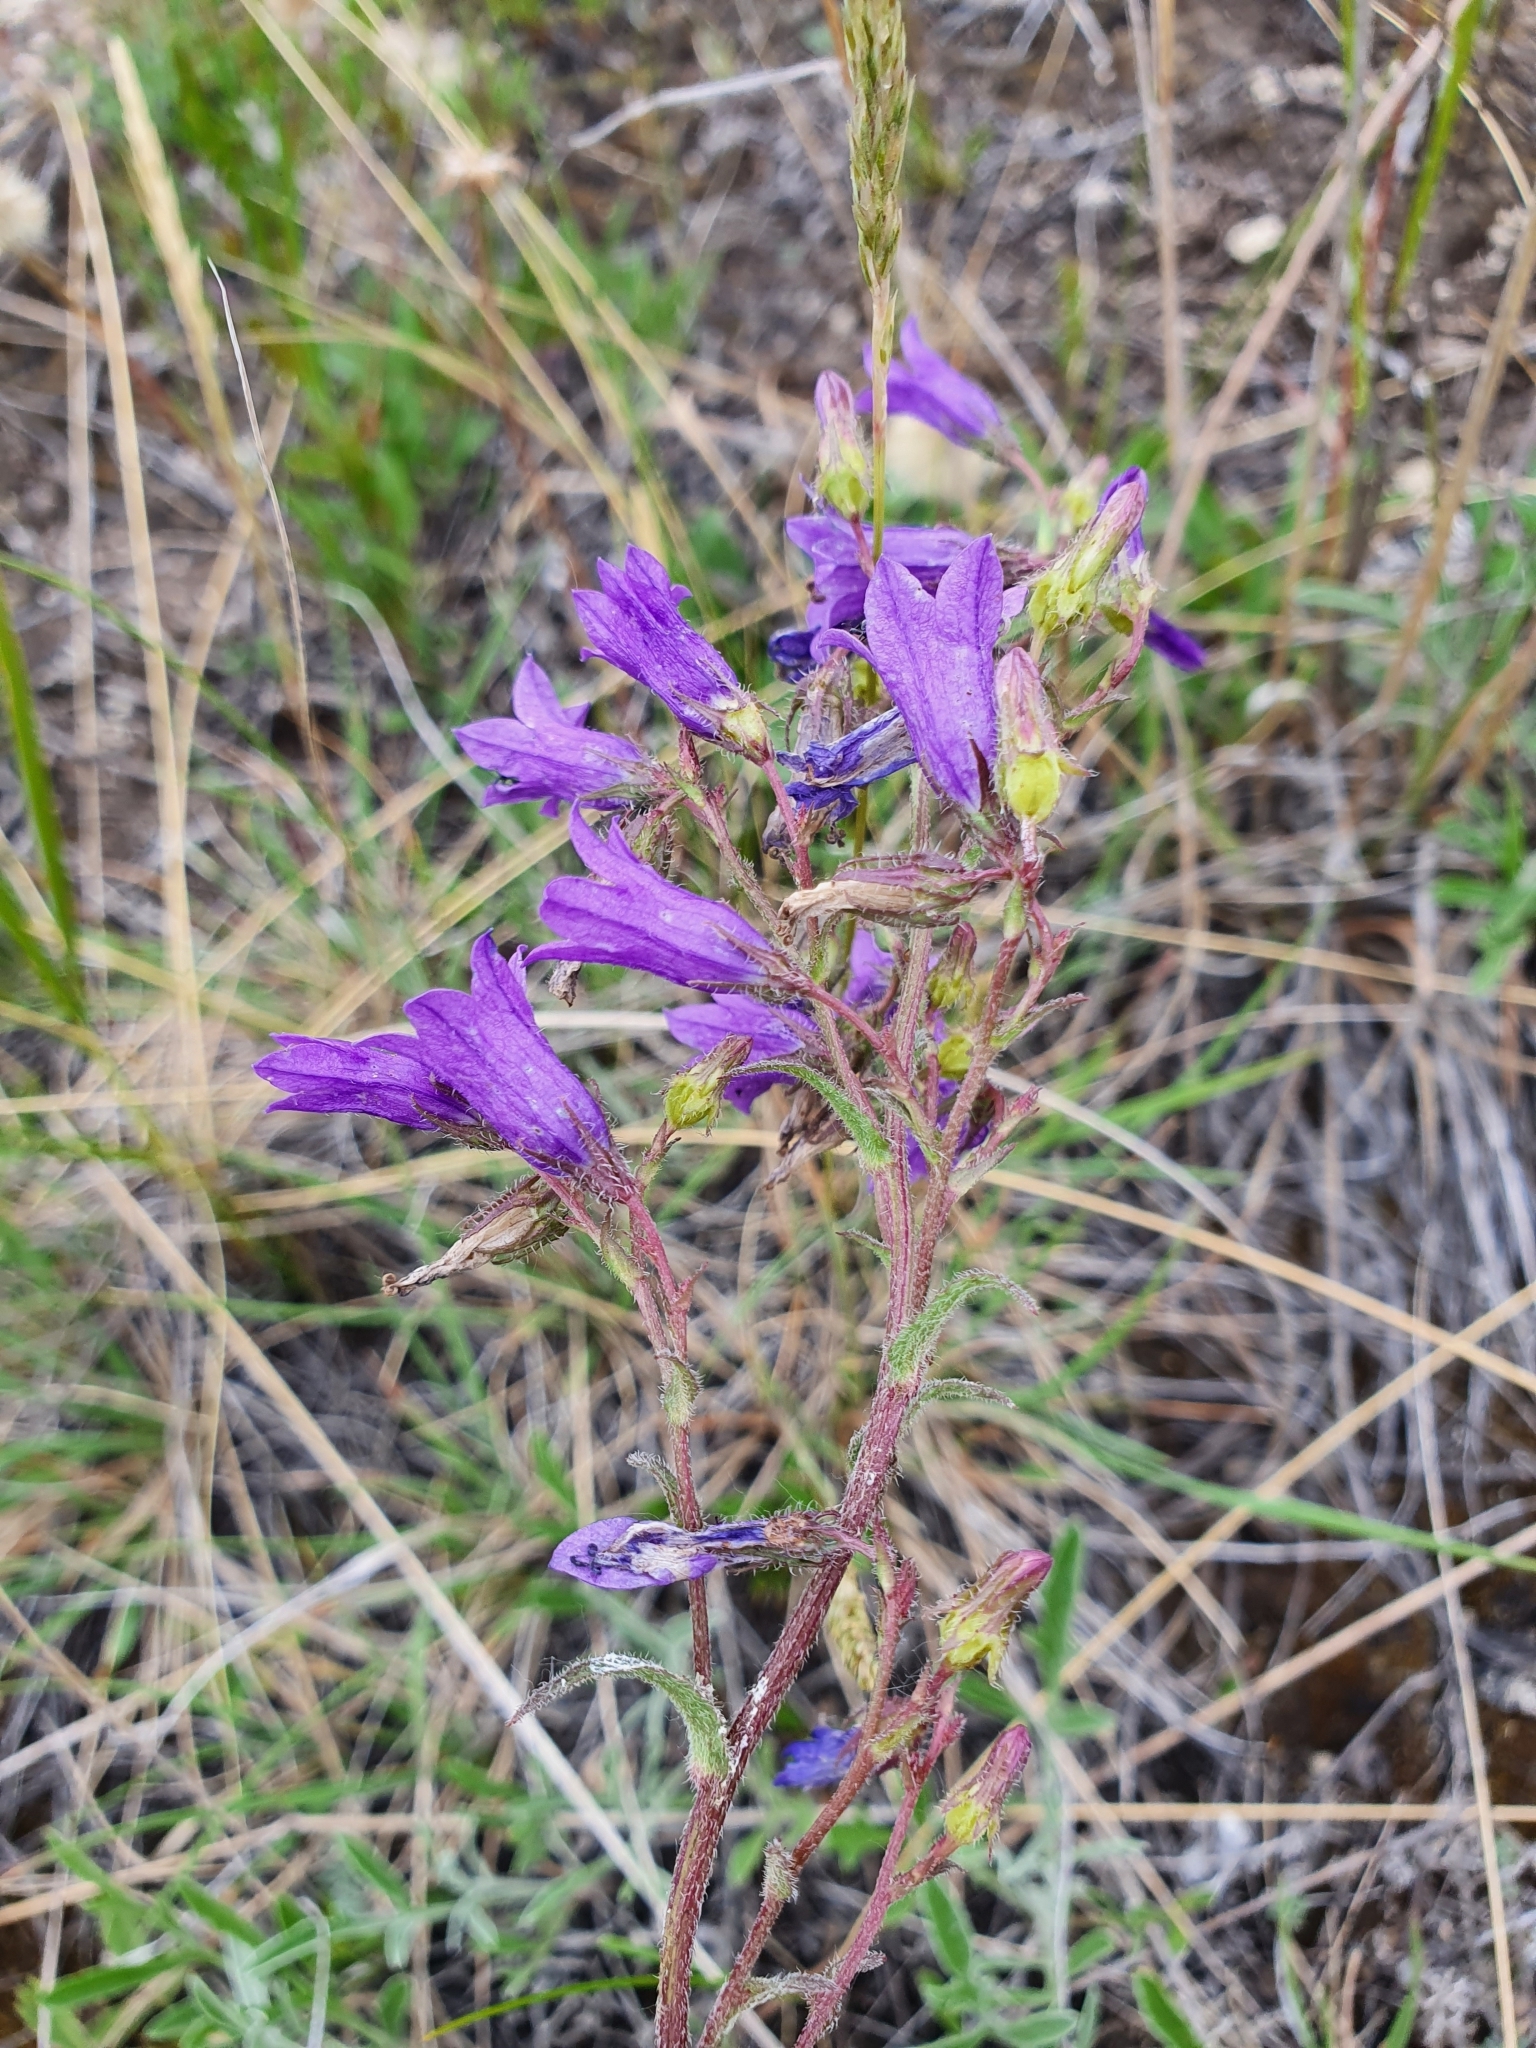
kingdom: Plantae
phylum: Tracheophyta
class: Magnoliopsida
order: Asterales
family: Campanulaceae
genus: Campanula
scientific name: Campanula sibirica
